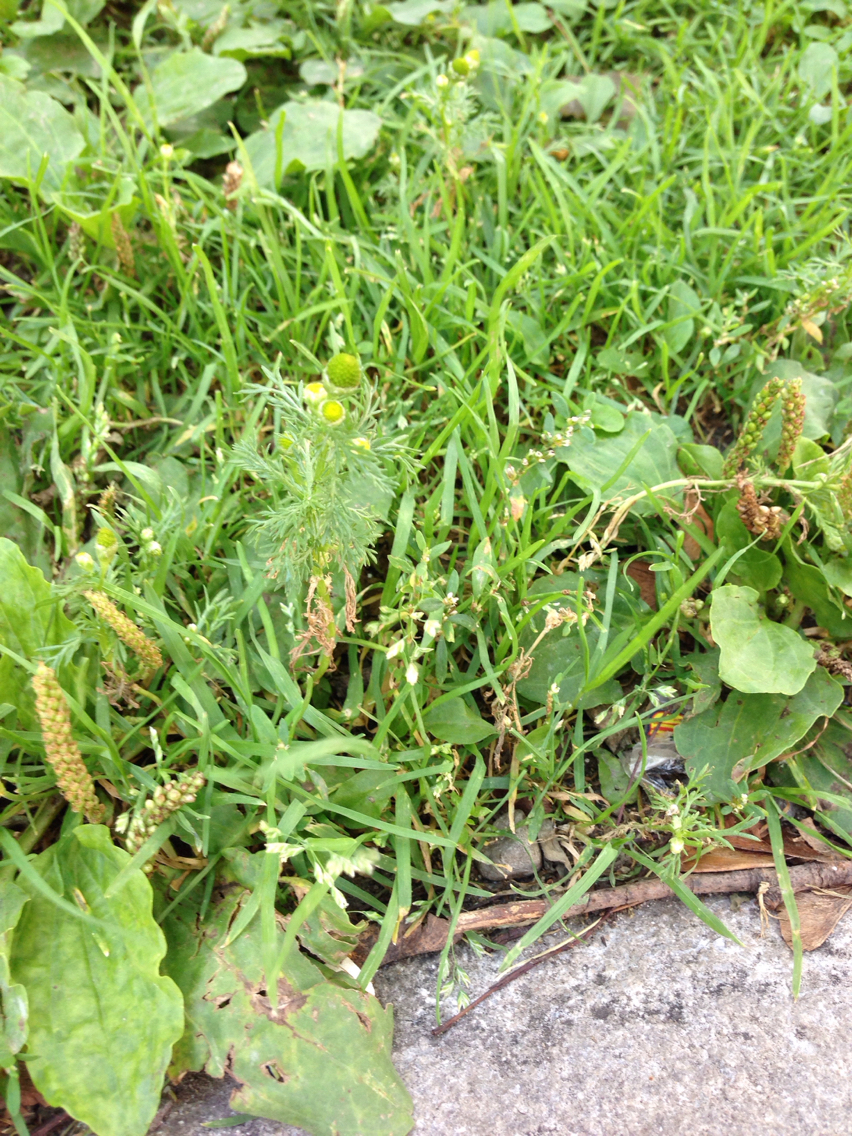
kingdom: Plantae
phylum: Tracheophyta
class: Magnoliopsida
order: Asterales
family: Asteraceae
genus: Matricaria
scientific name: Matricaria discoidea
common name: Disc mayweed
